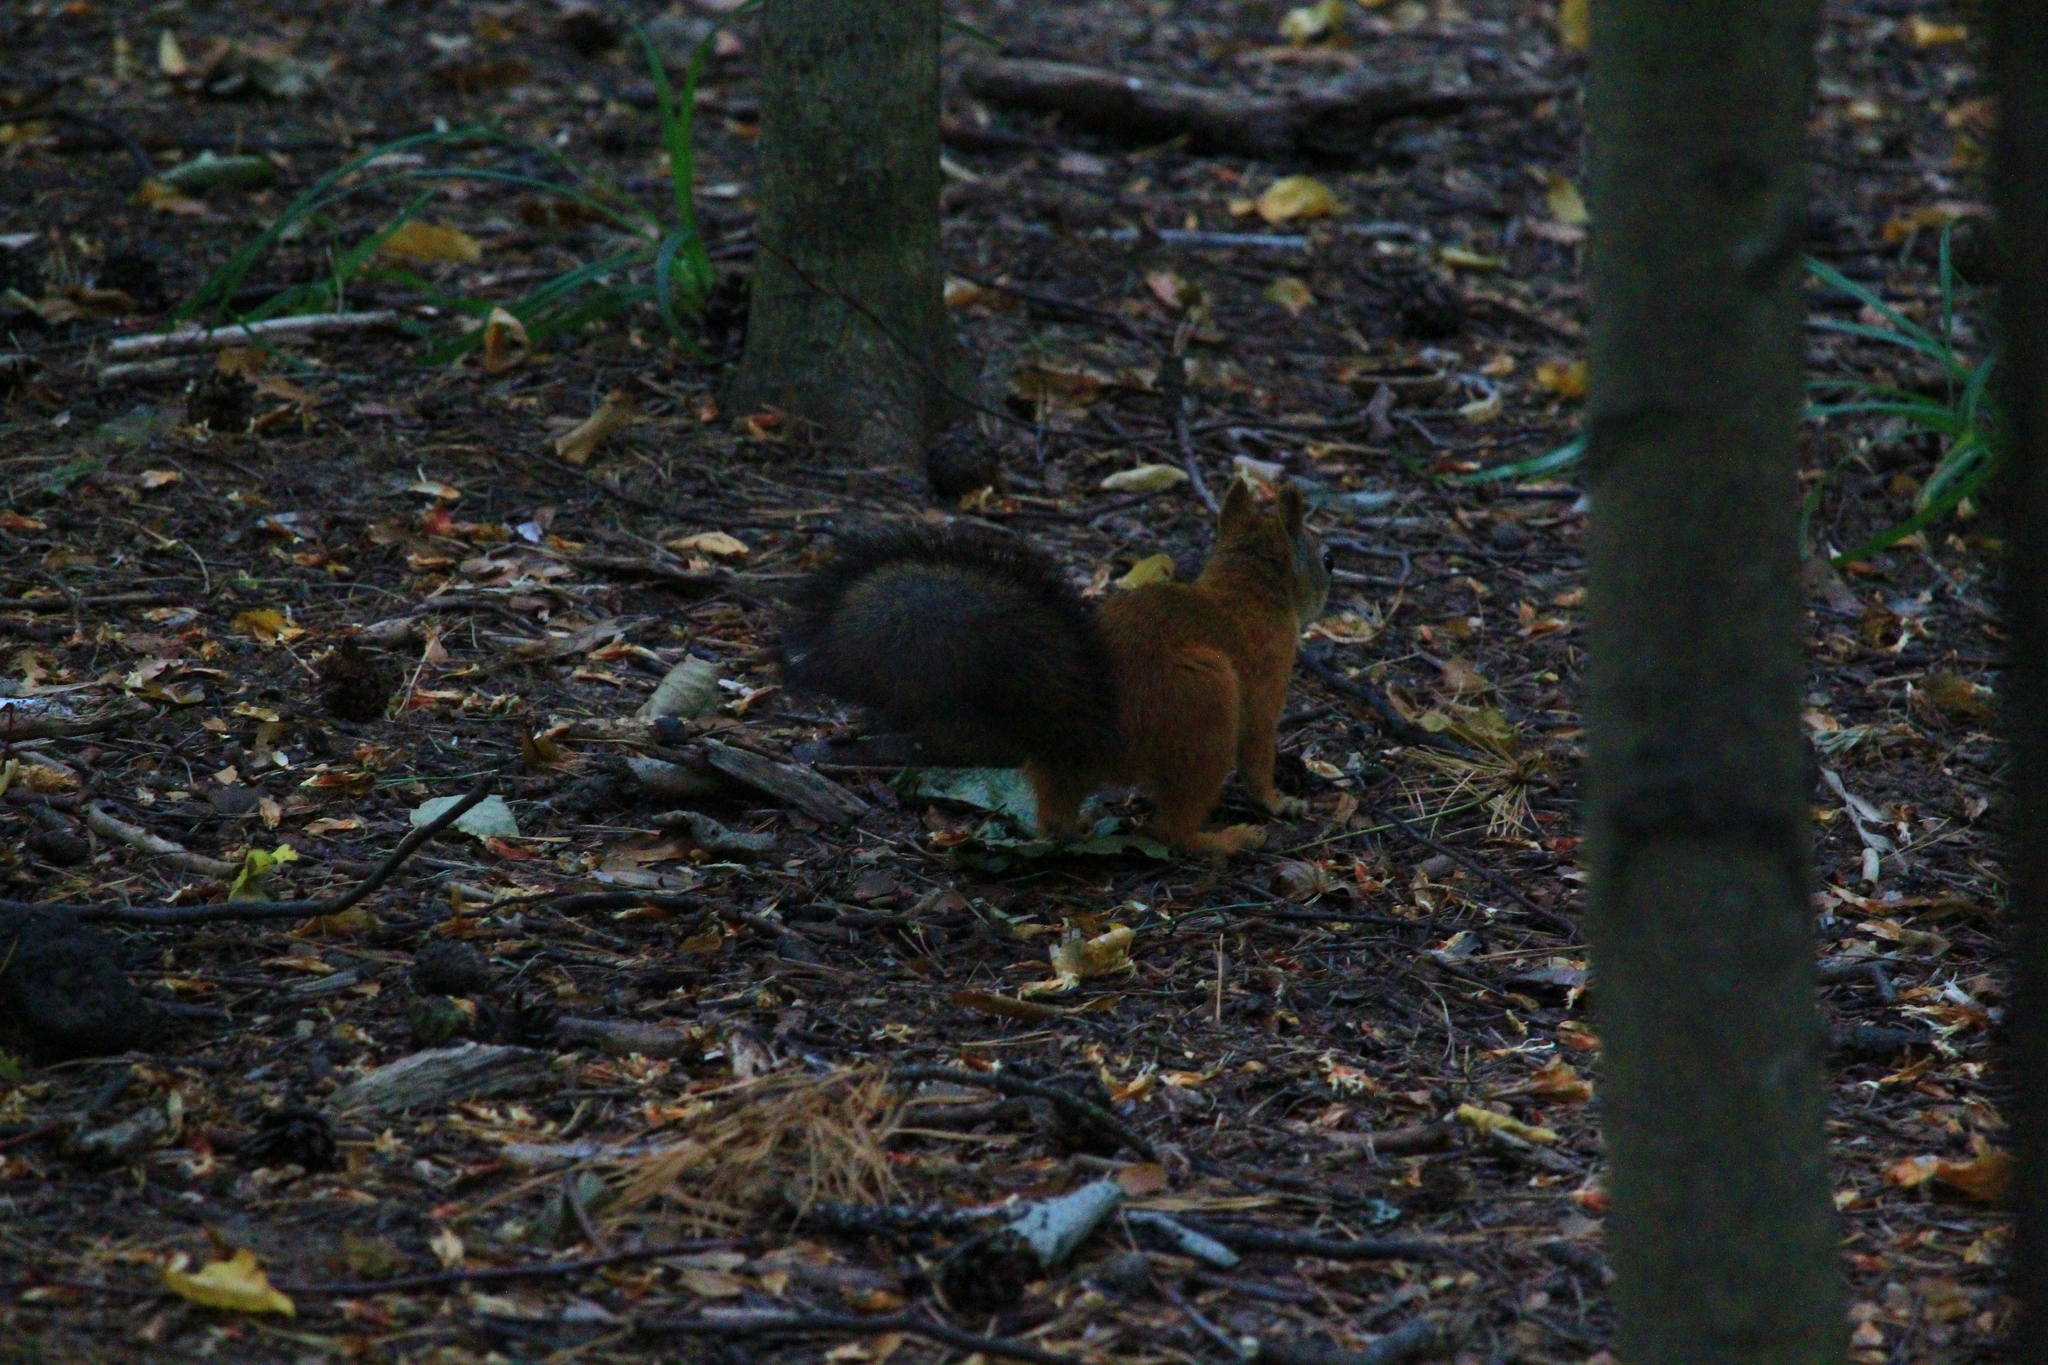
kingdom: Animalia
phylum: Chordata
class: Mammalia
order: Rodentia
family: Sciuridae
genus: Sciurus
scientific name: Sciurus vulgaris
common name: Eurasian red squirrel
